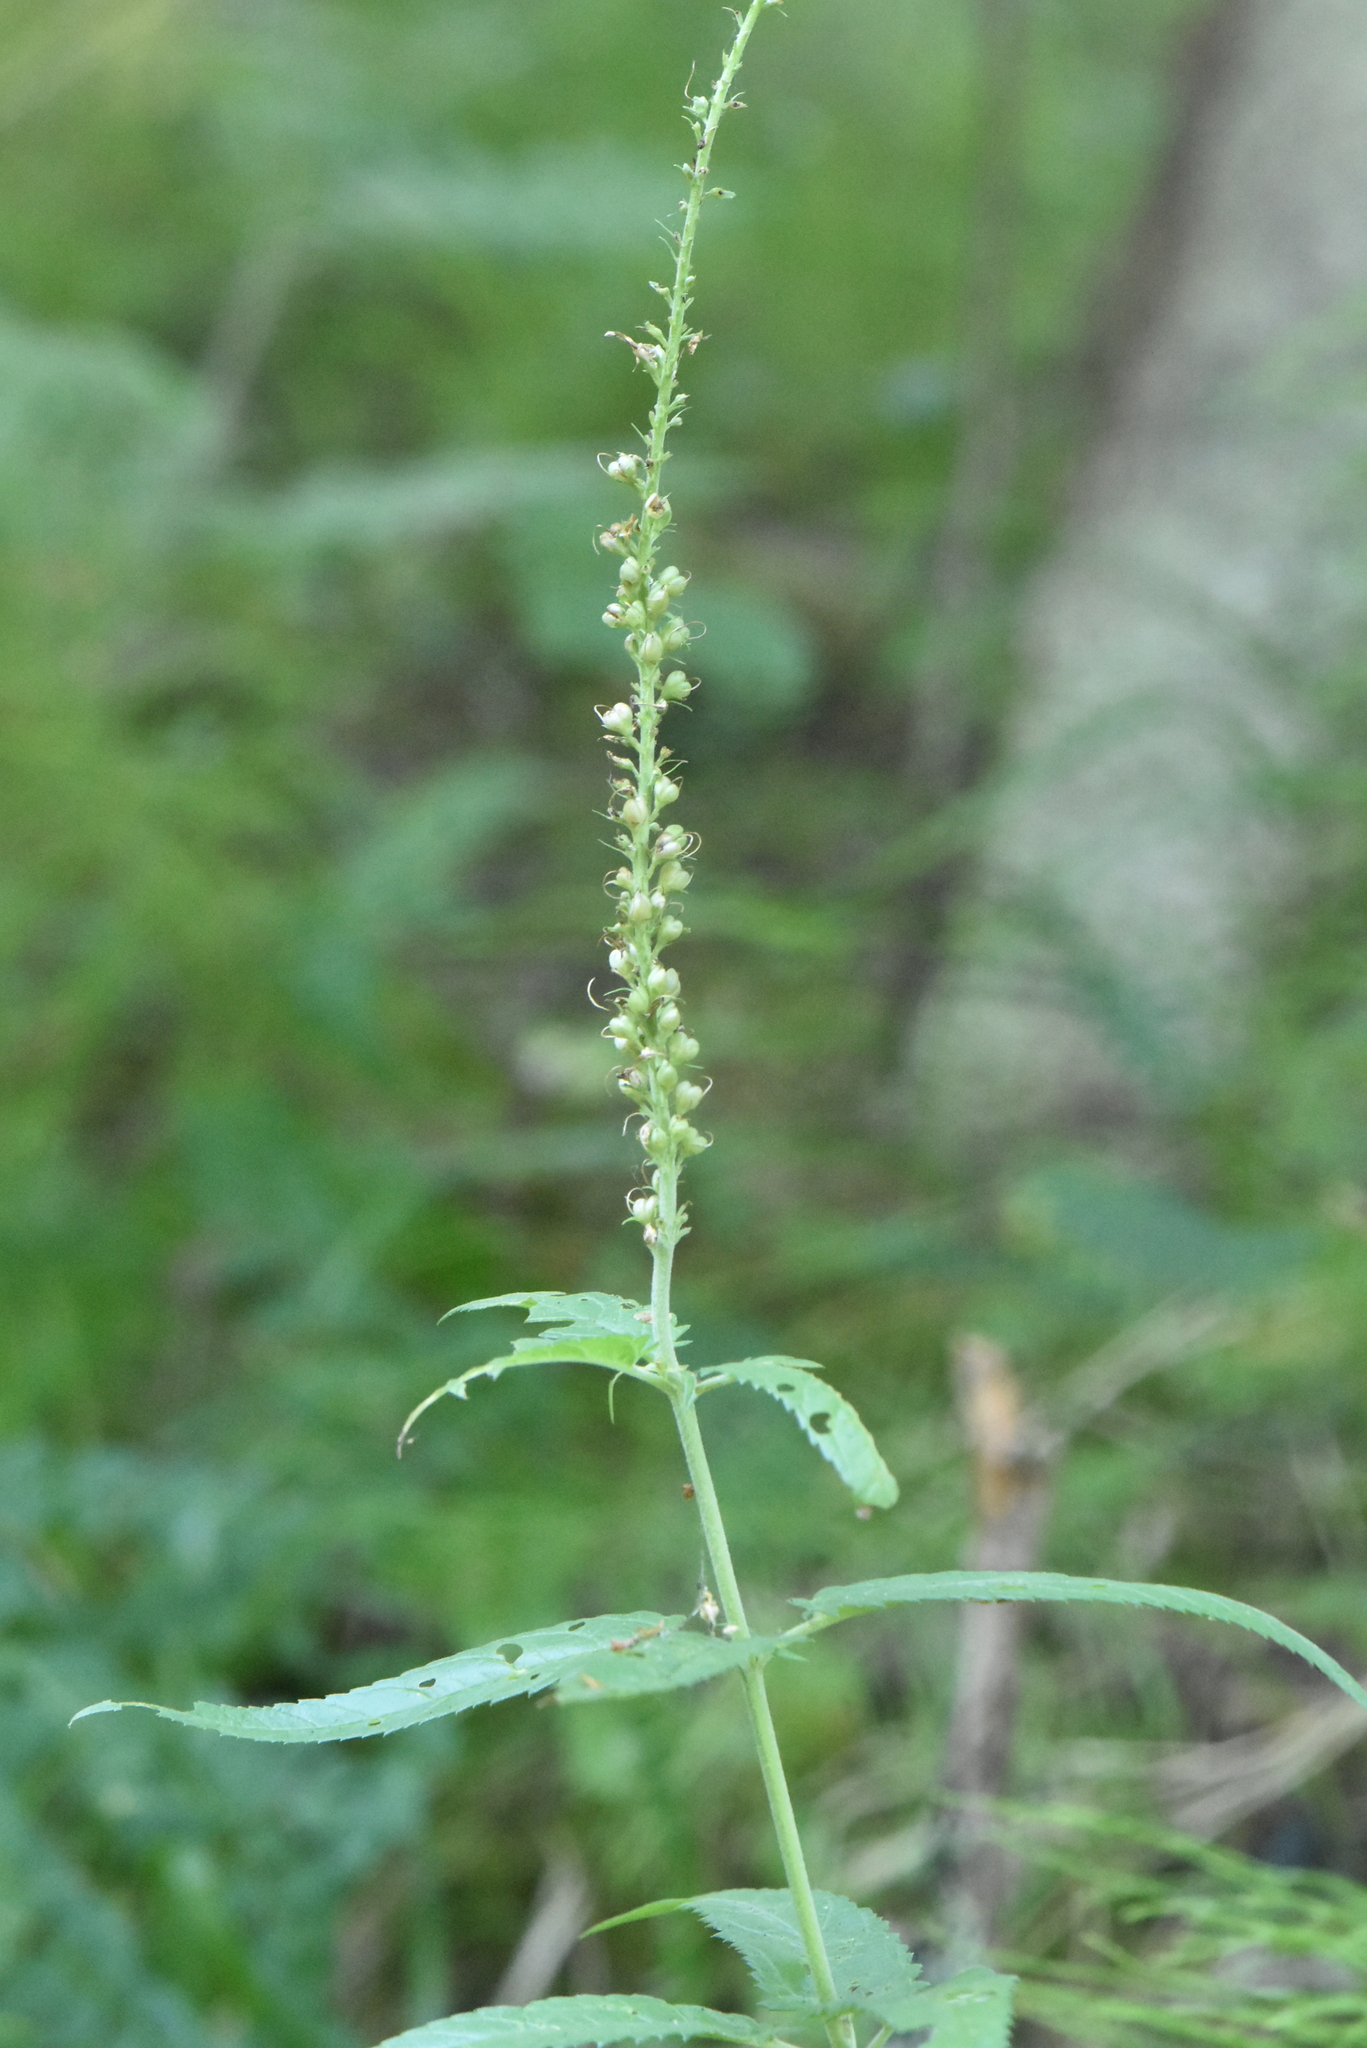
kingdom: Plantae
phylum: Tracheophyta
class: Magnoliopsida
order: Lamiales
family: Plantaginaceae
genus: Veronica
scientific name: Veronica longifolia
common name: Garden speedwell
